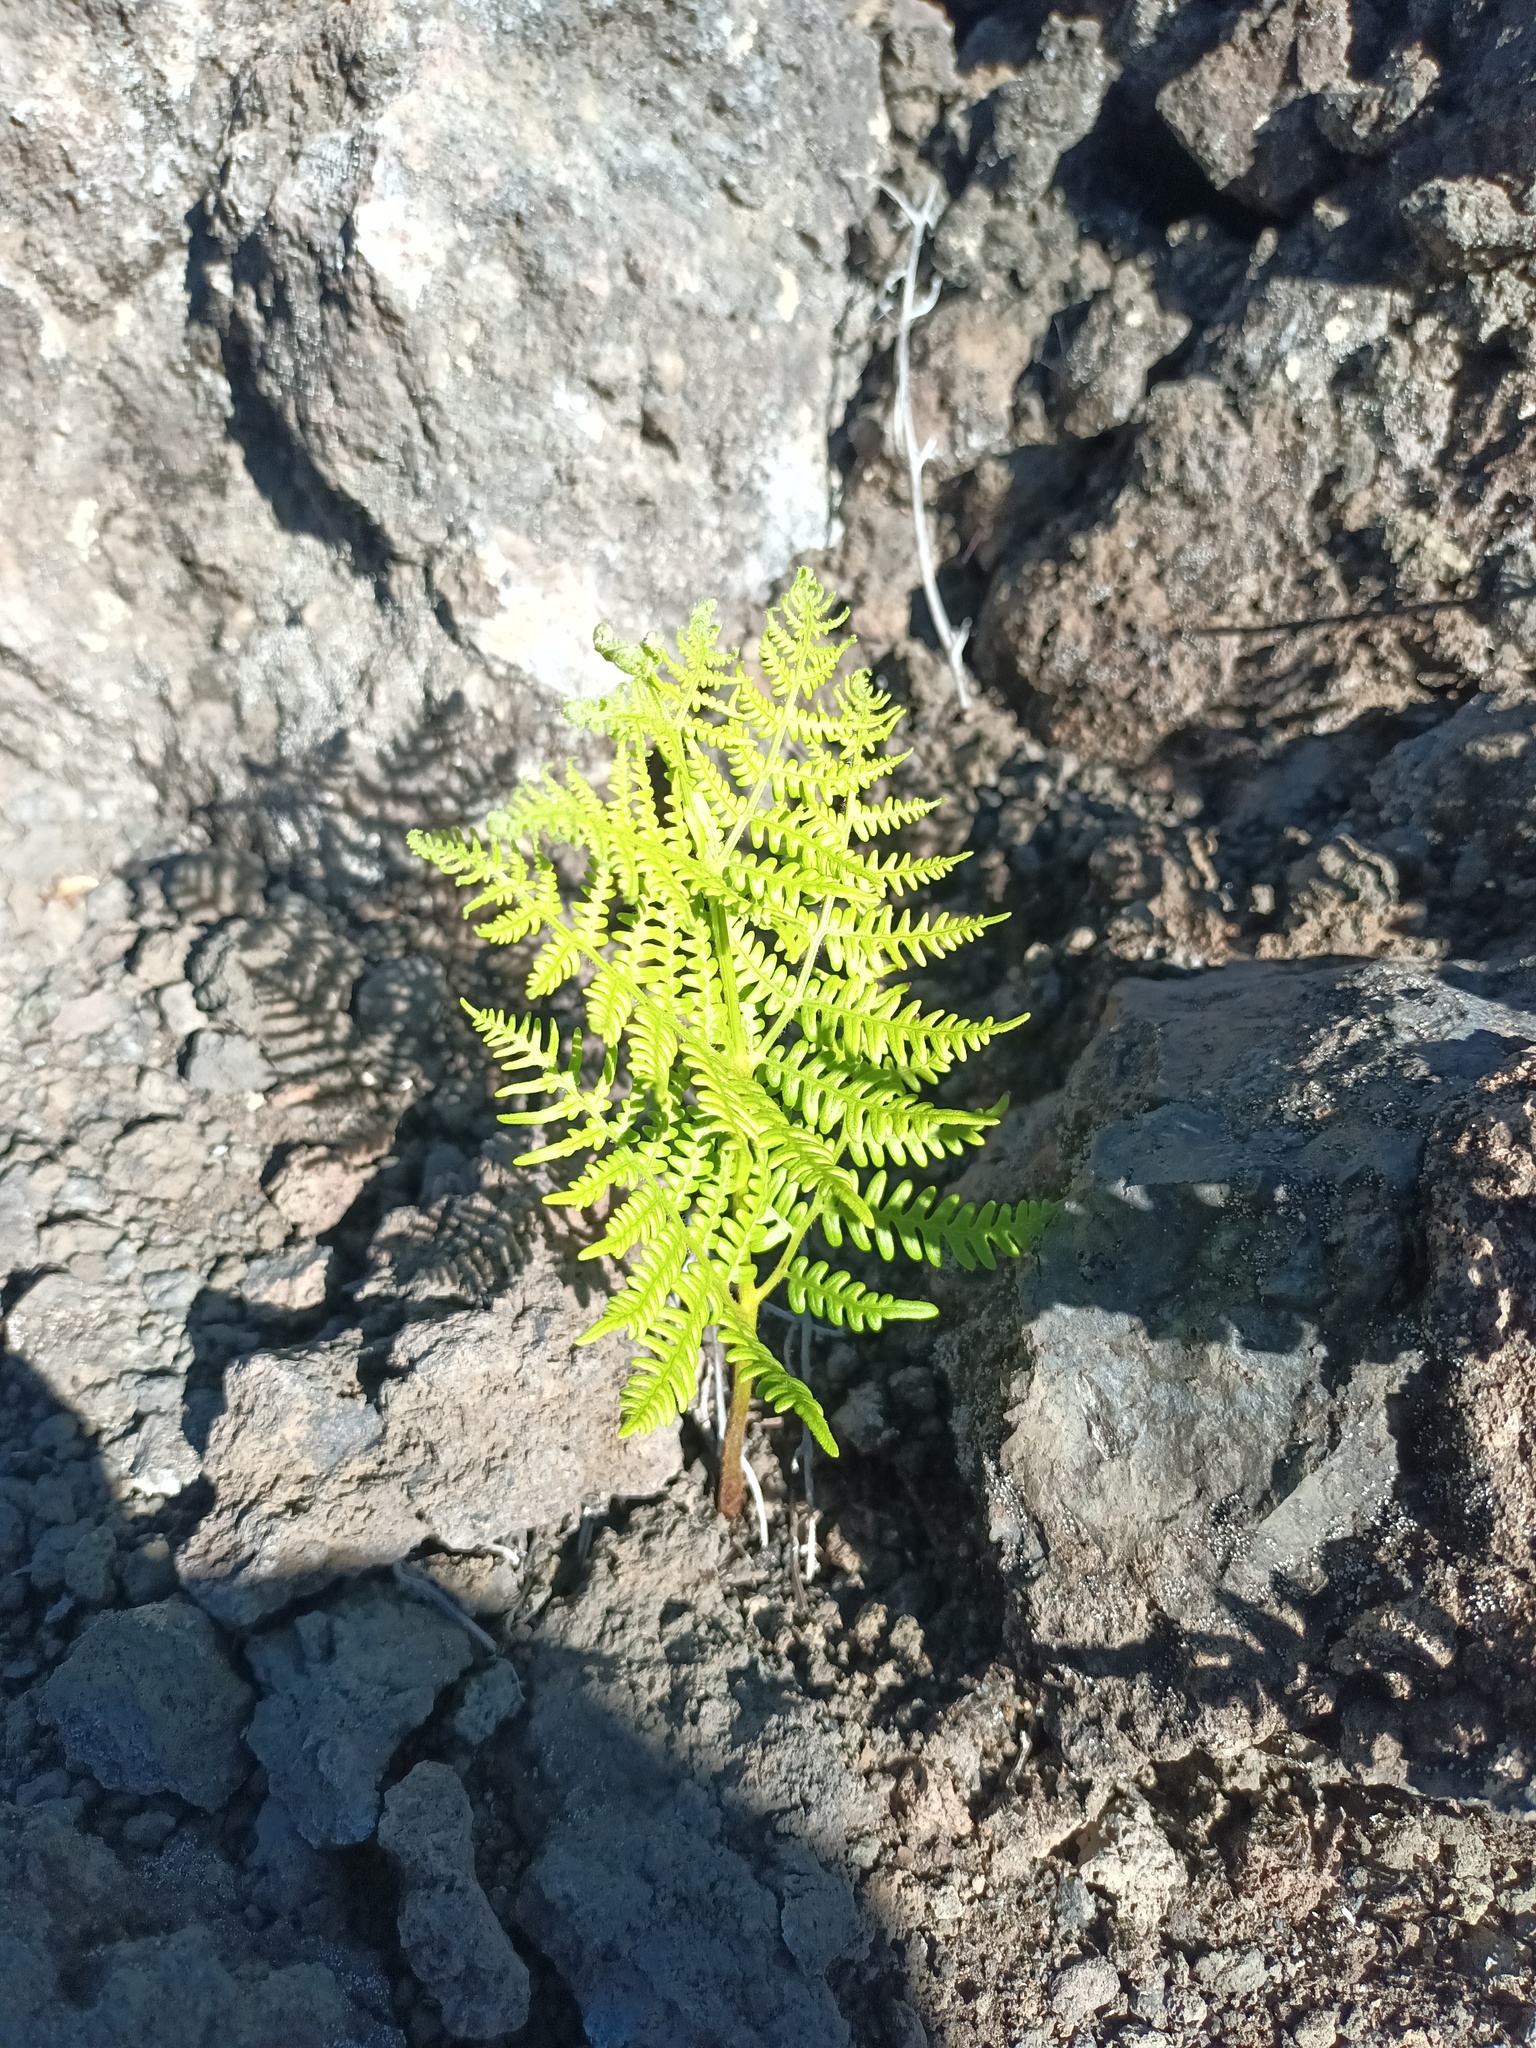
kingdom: Plantae
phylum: Tracheophyta
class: Polypodiopsida
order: Polypodiales
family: Dennstaedtiaceae
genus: Pteridium
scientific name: Pteridium aquilinum
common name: Bracken
